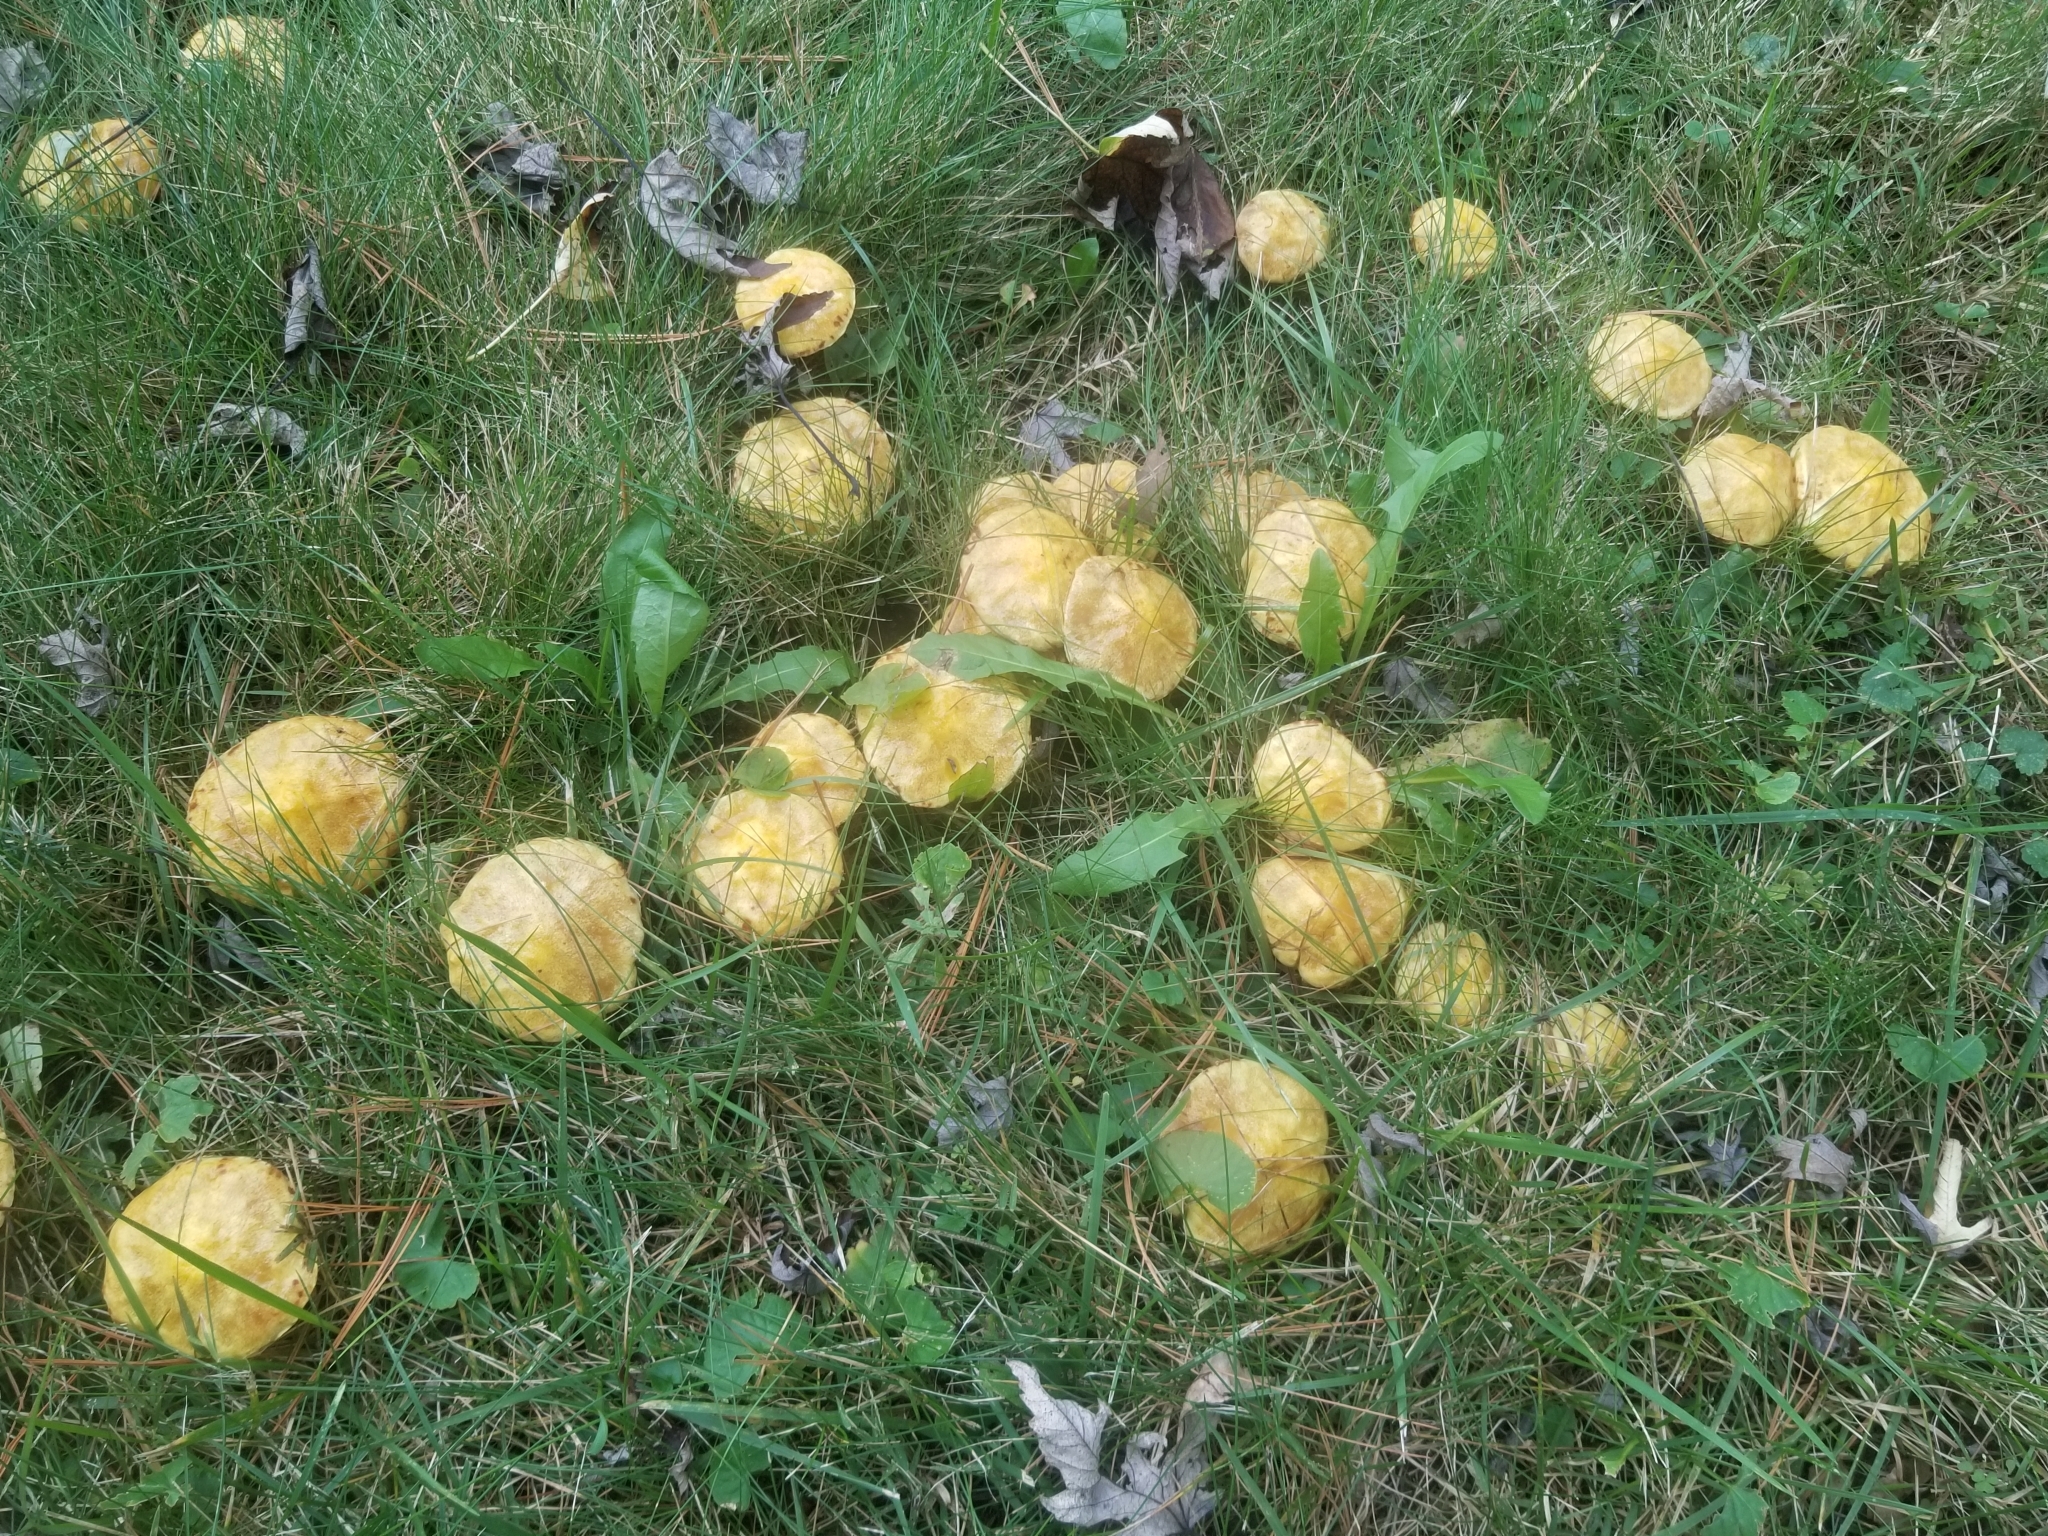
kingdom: Fungi
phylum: Basidiomycota
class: Agaricomycetes
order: Boletales
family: Suillaceae
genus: Suillus
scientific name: Suillus americanus
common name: Chicken fat mushroom
